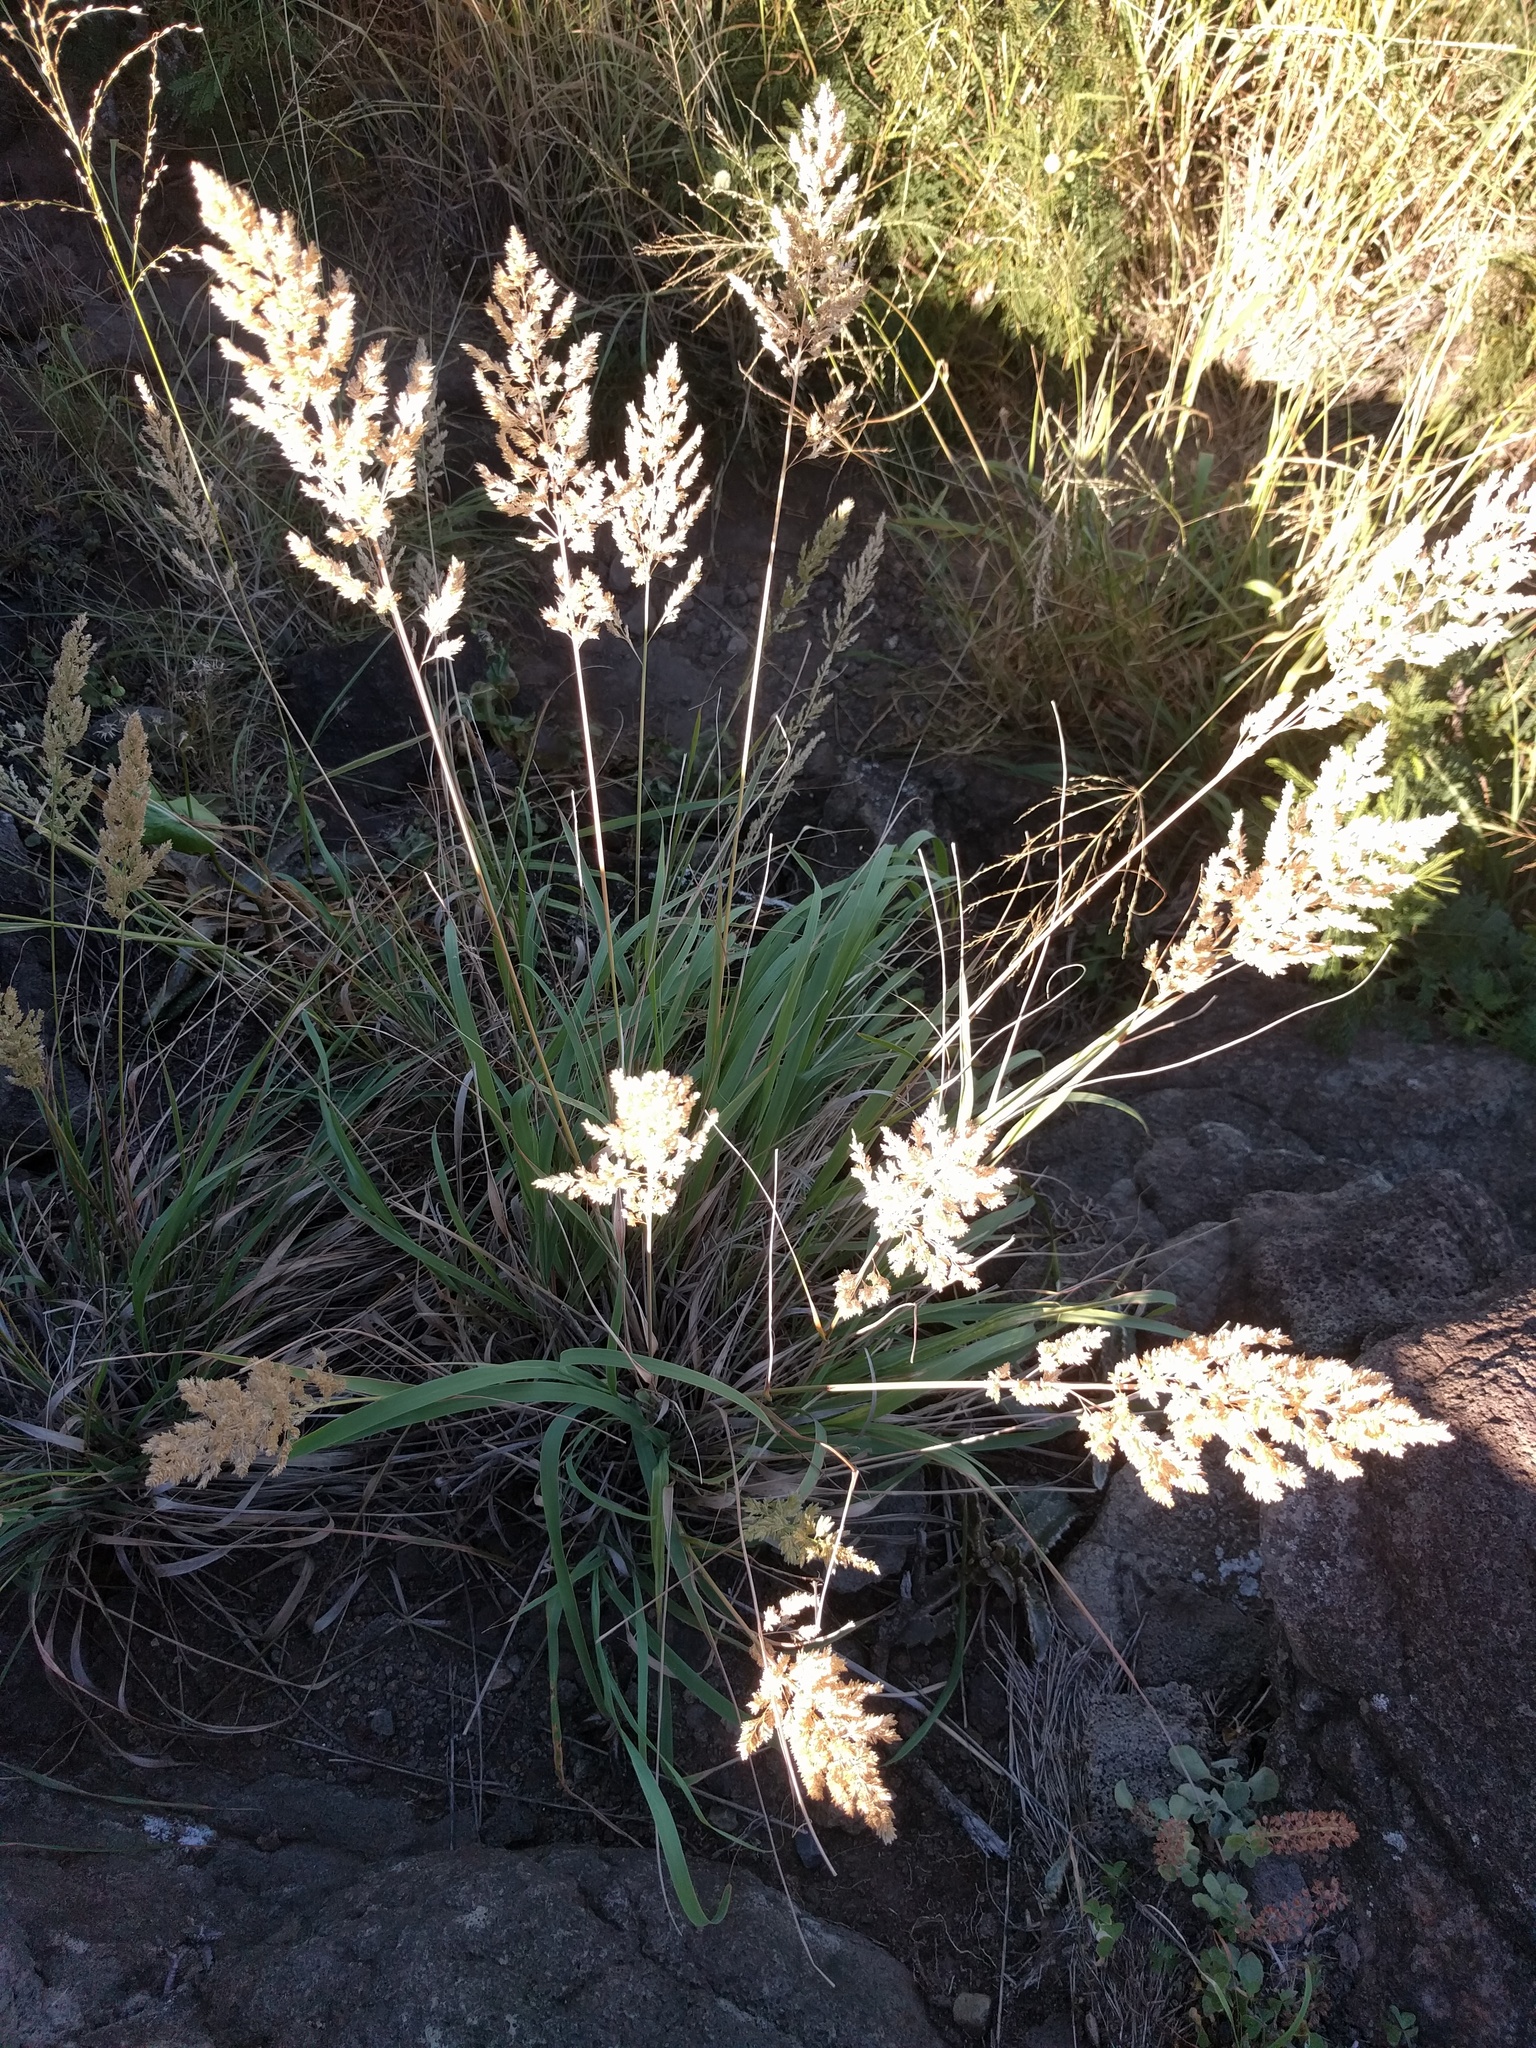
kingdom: Plantae
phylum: Tracheophyta
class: Liliopsida
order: Poales
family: Poaceae
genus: Eragrostis
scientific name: Eragrostis variabilis
